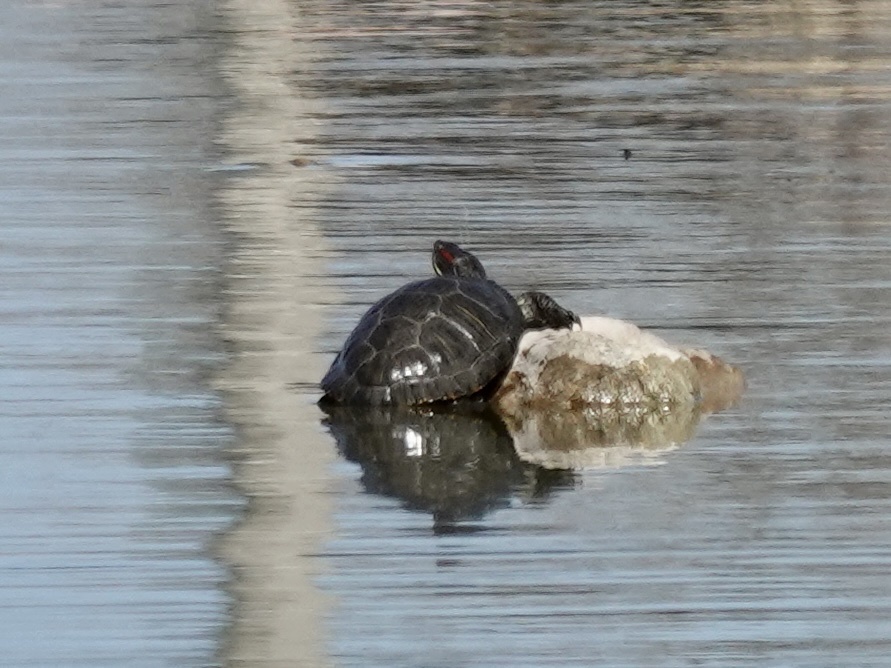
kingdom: Animalia
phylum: Chordata
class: Testudines
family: Emydidae
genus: Trachemys
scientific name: Trachemys scripta
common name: Slider
